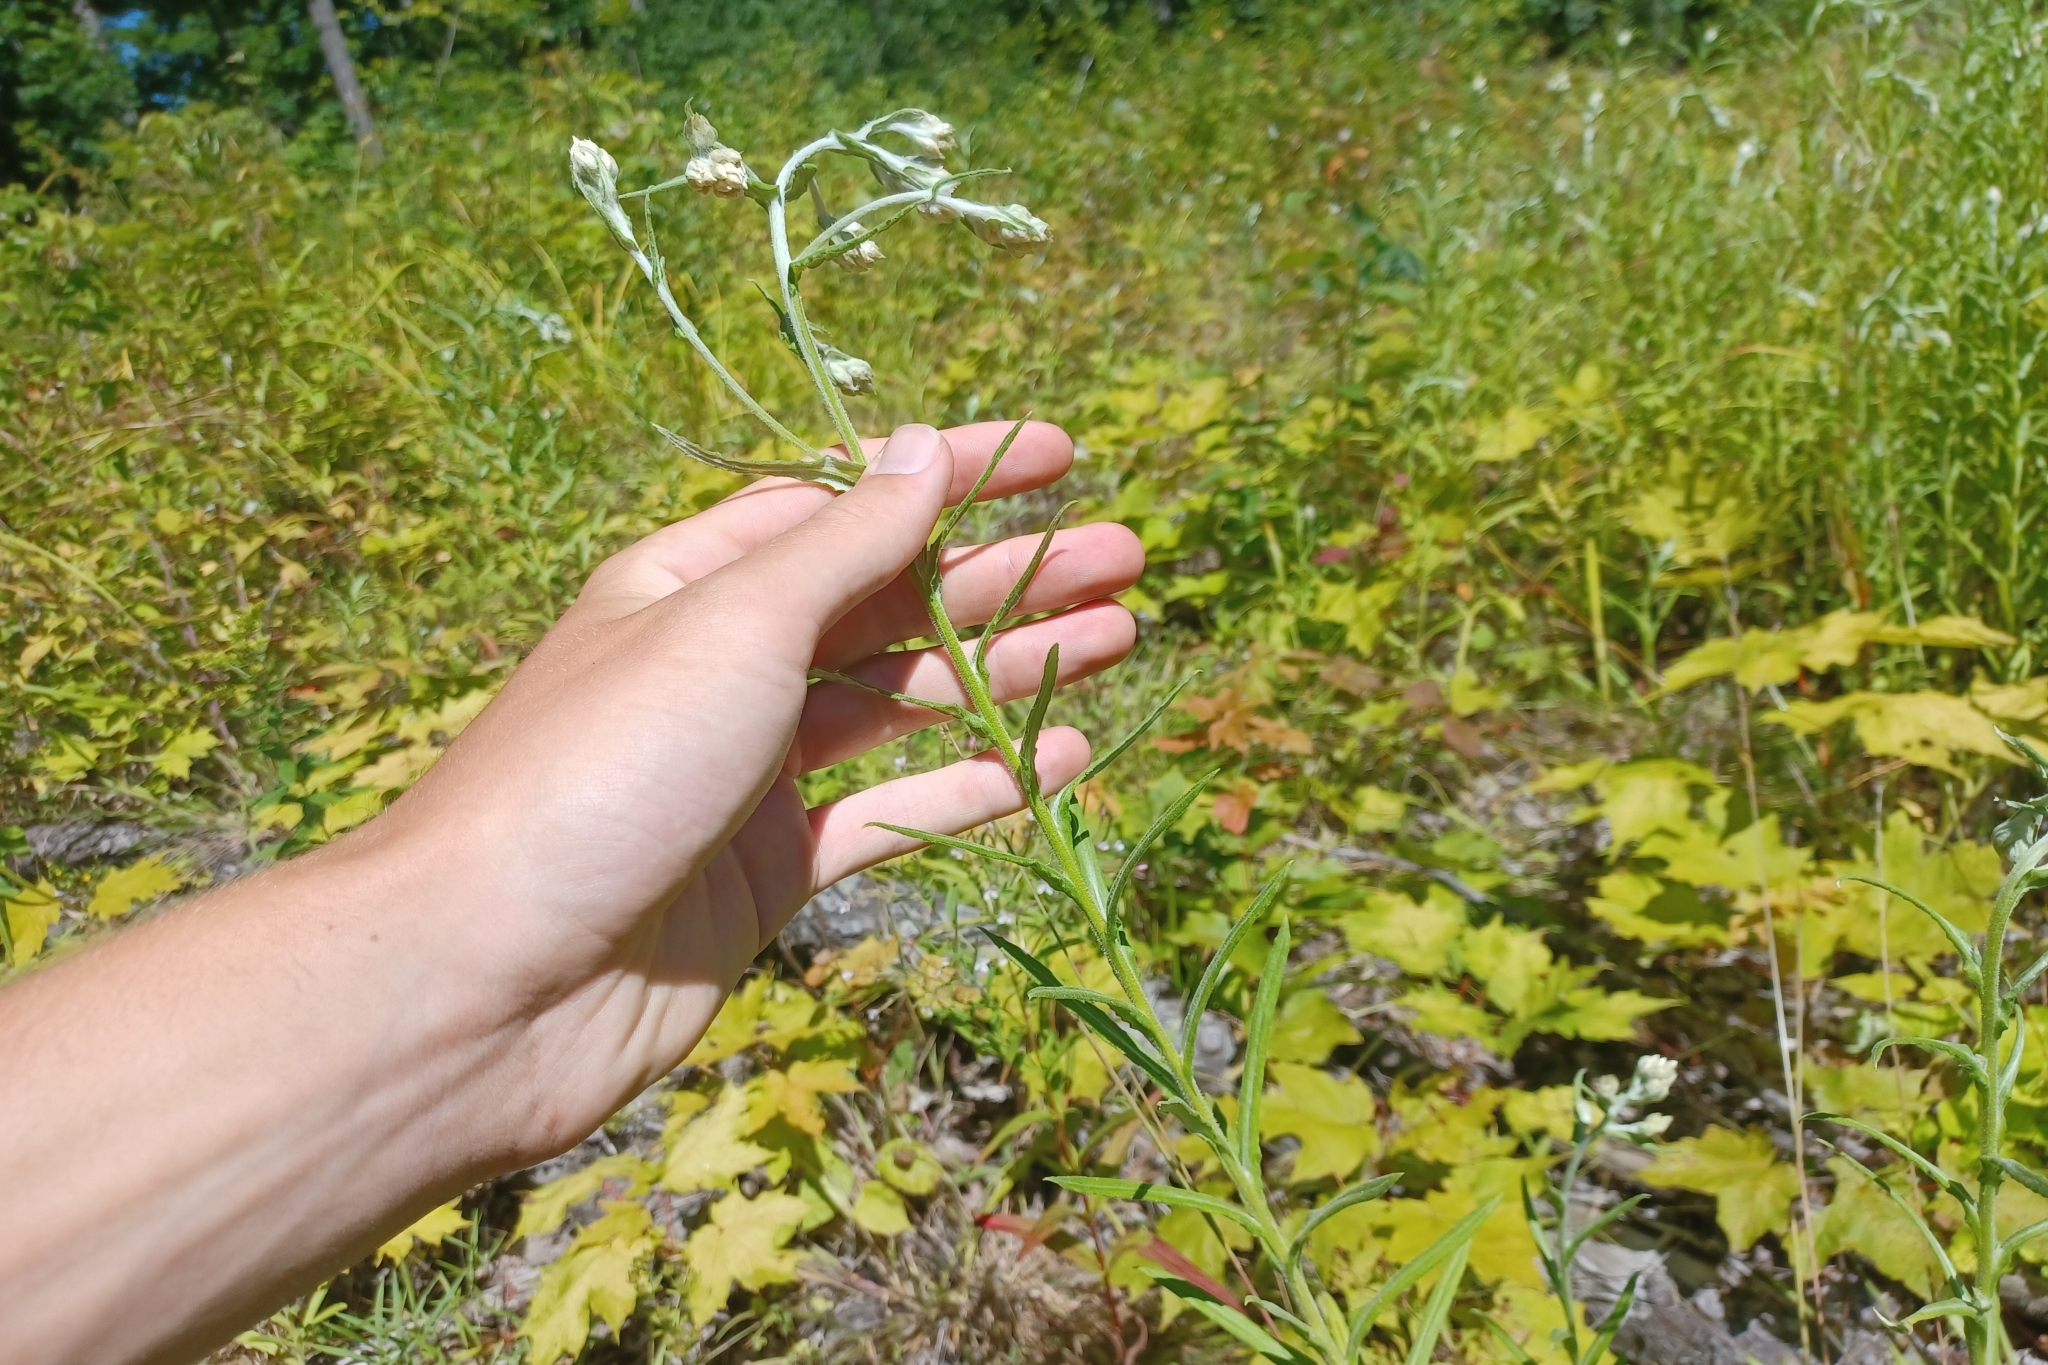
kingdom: Plantae
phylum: Tracheophyta
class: Magnoliopsida
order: Asterales
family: Asteraceae
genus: Pseudognaphalium
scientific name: Pseudognaphalium macounii
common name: Clammy cudweed
